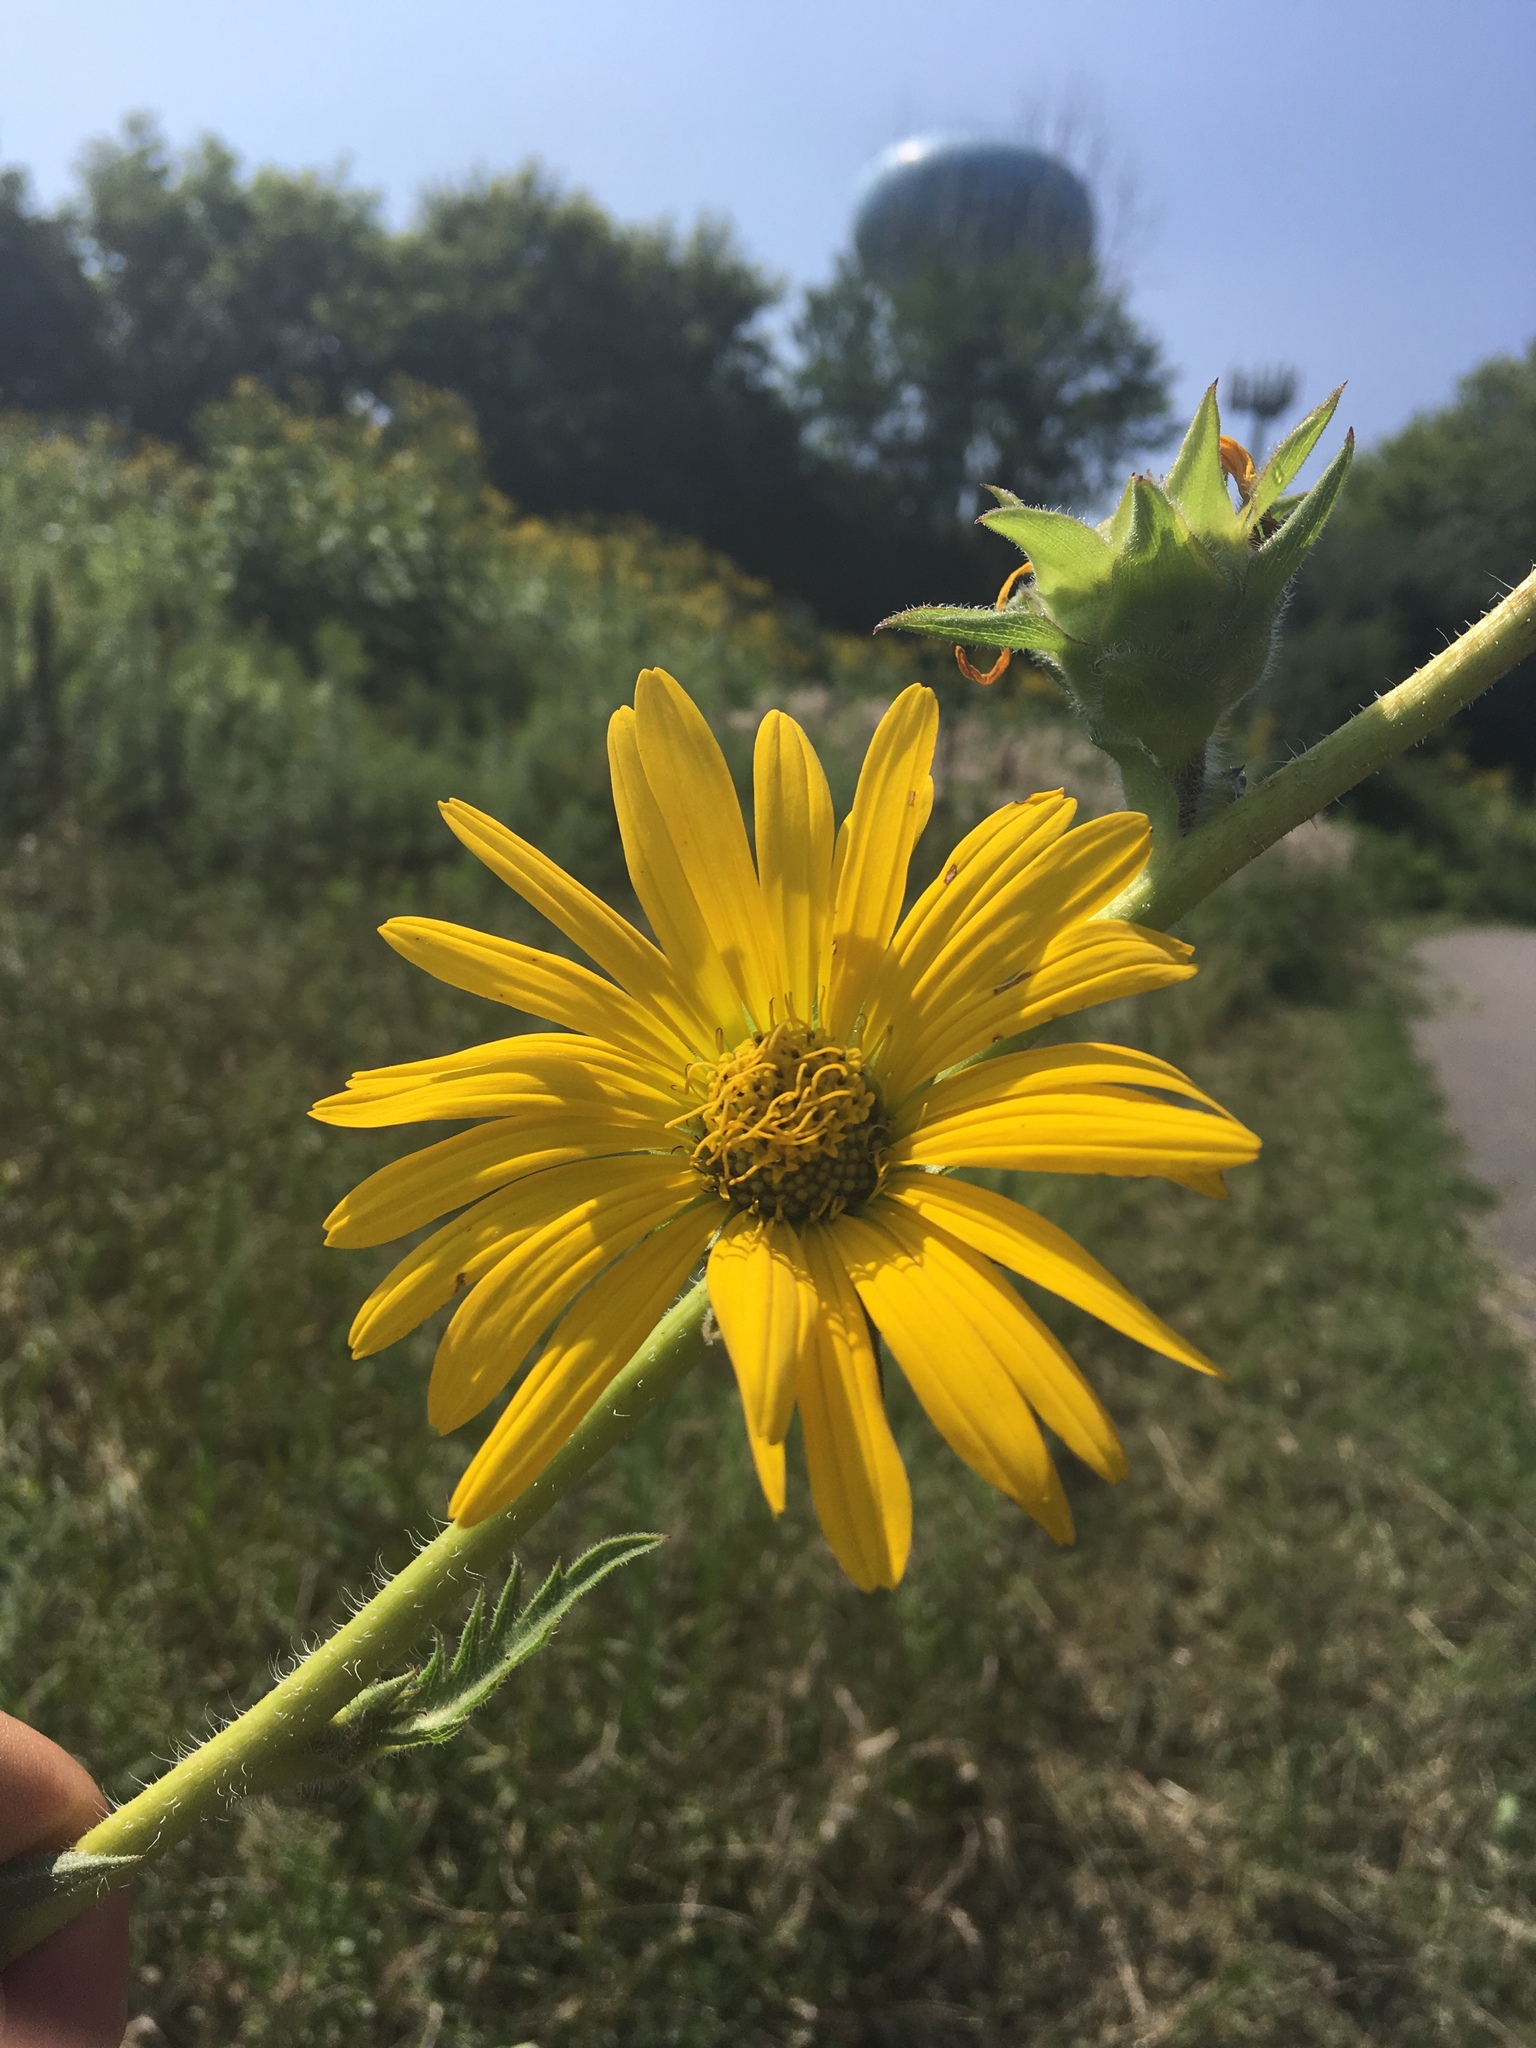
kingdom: Plantae
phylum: Tracheophyta
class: Magnoliopsida
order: Asterales
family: Asteraceae
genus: Silphium
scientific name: Silphium laciniatum
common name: Polarplant
